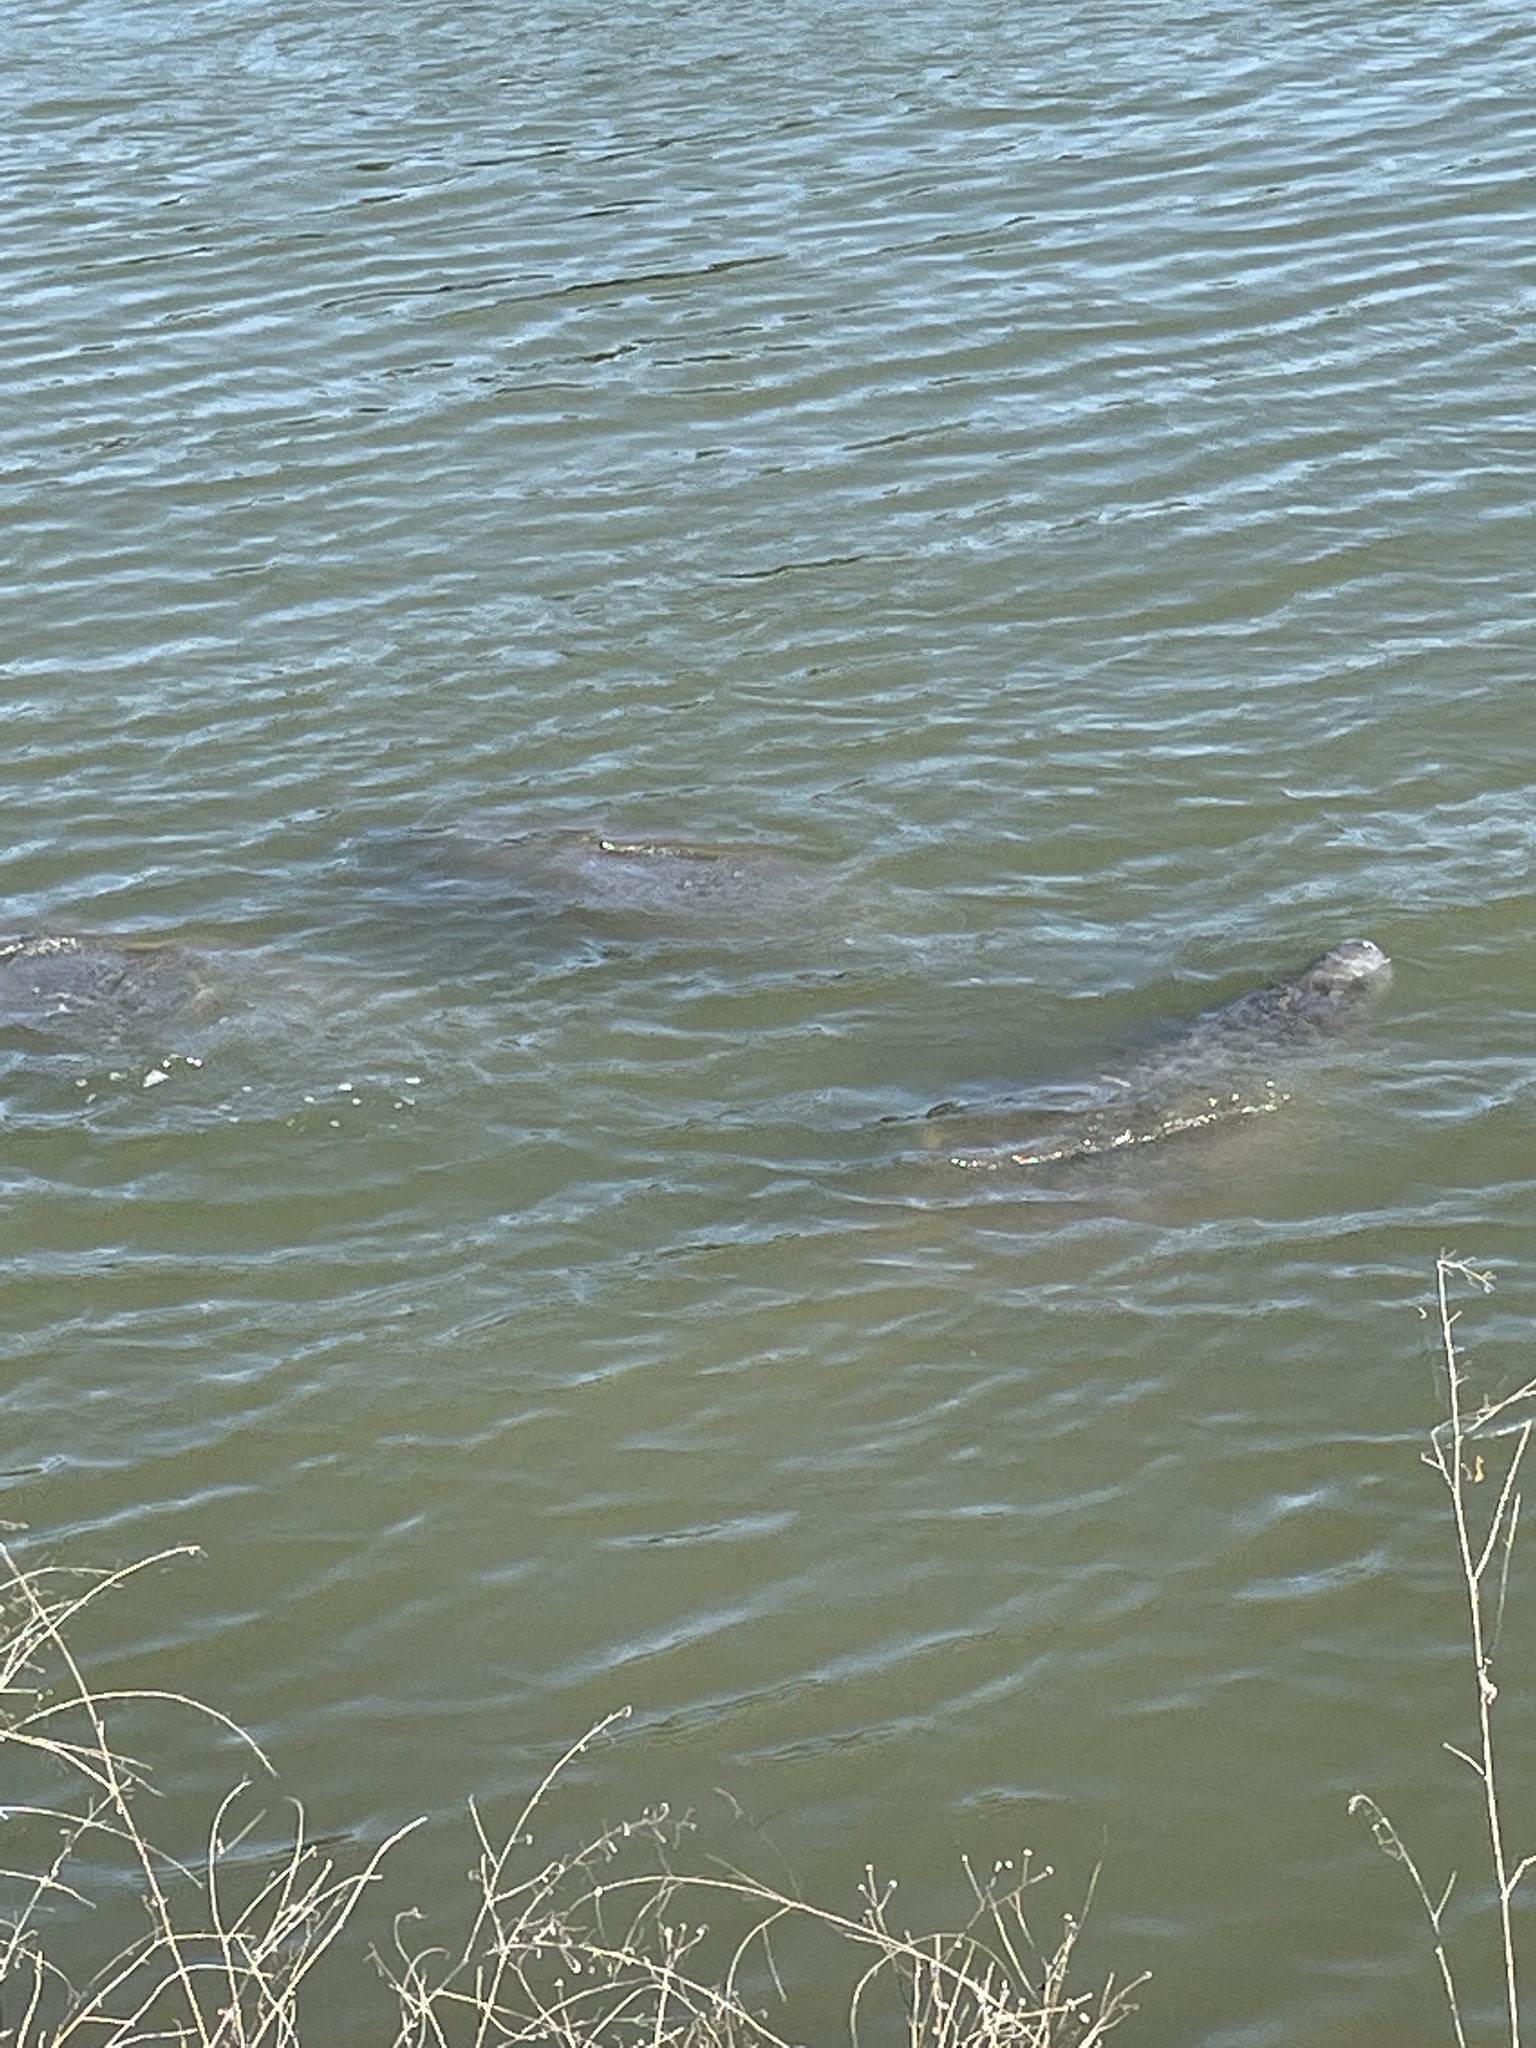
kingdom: Animalia
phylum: Chordata
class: Mammalia
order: Sirenia
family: Trichechidae
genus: Trichechus
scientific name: Trichechus manatus
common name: West indian manatee
